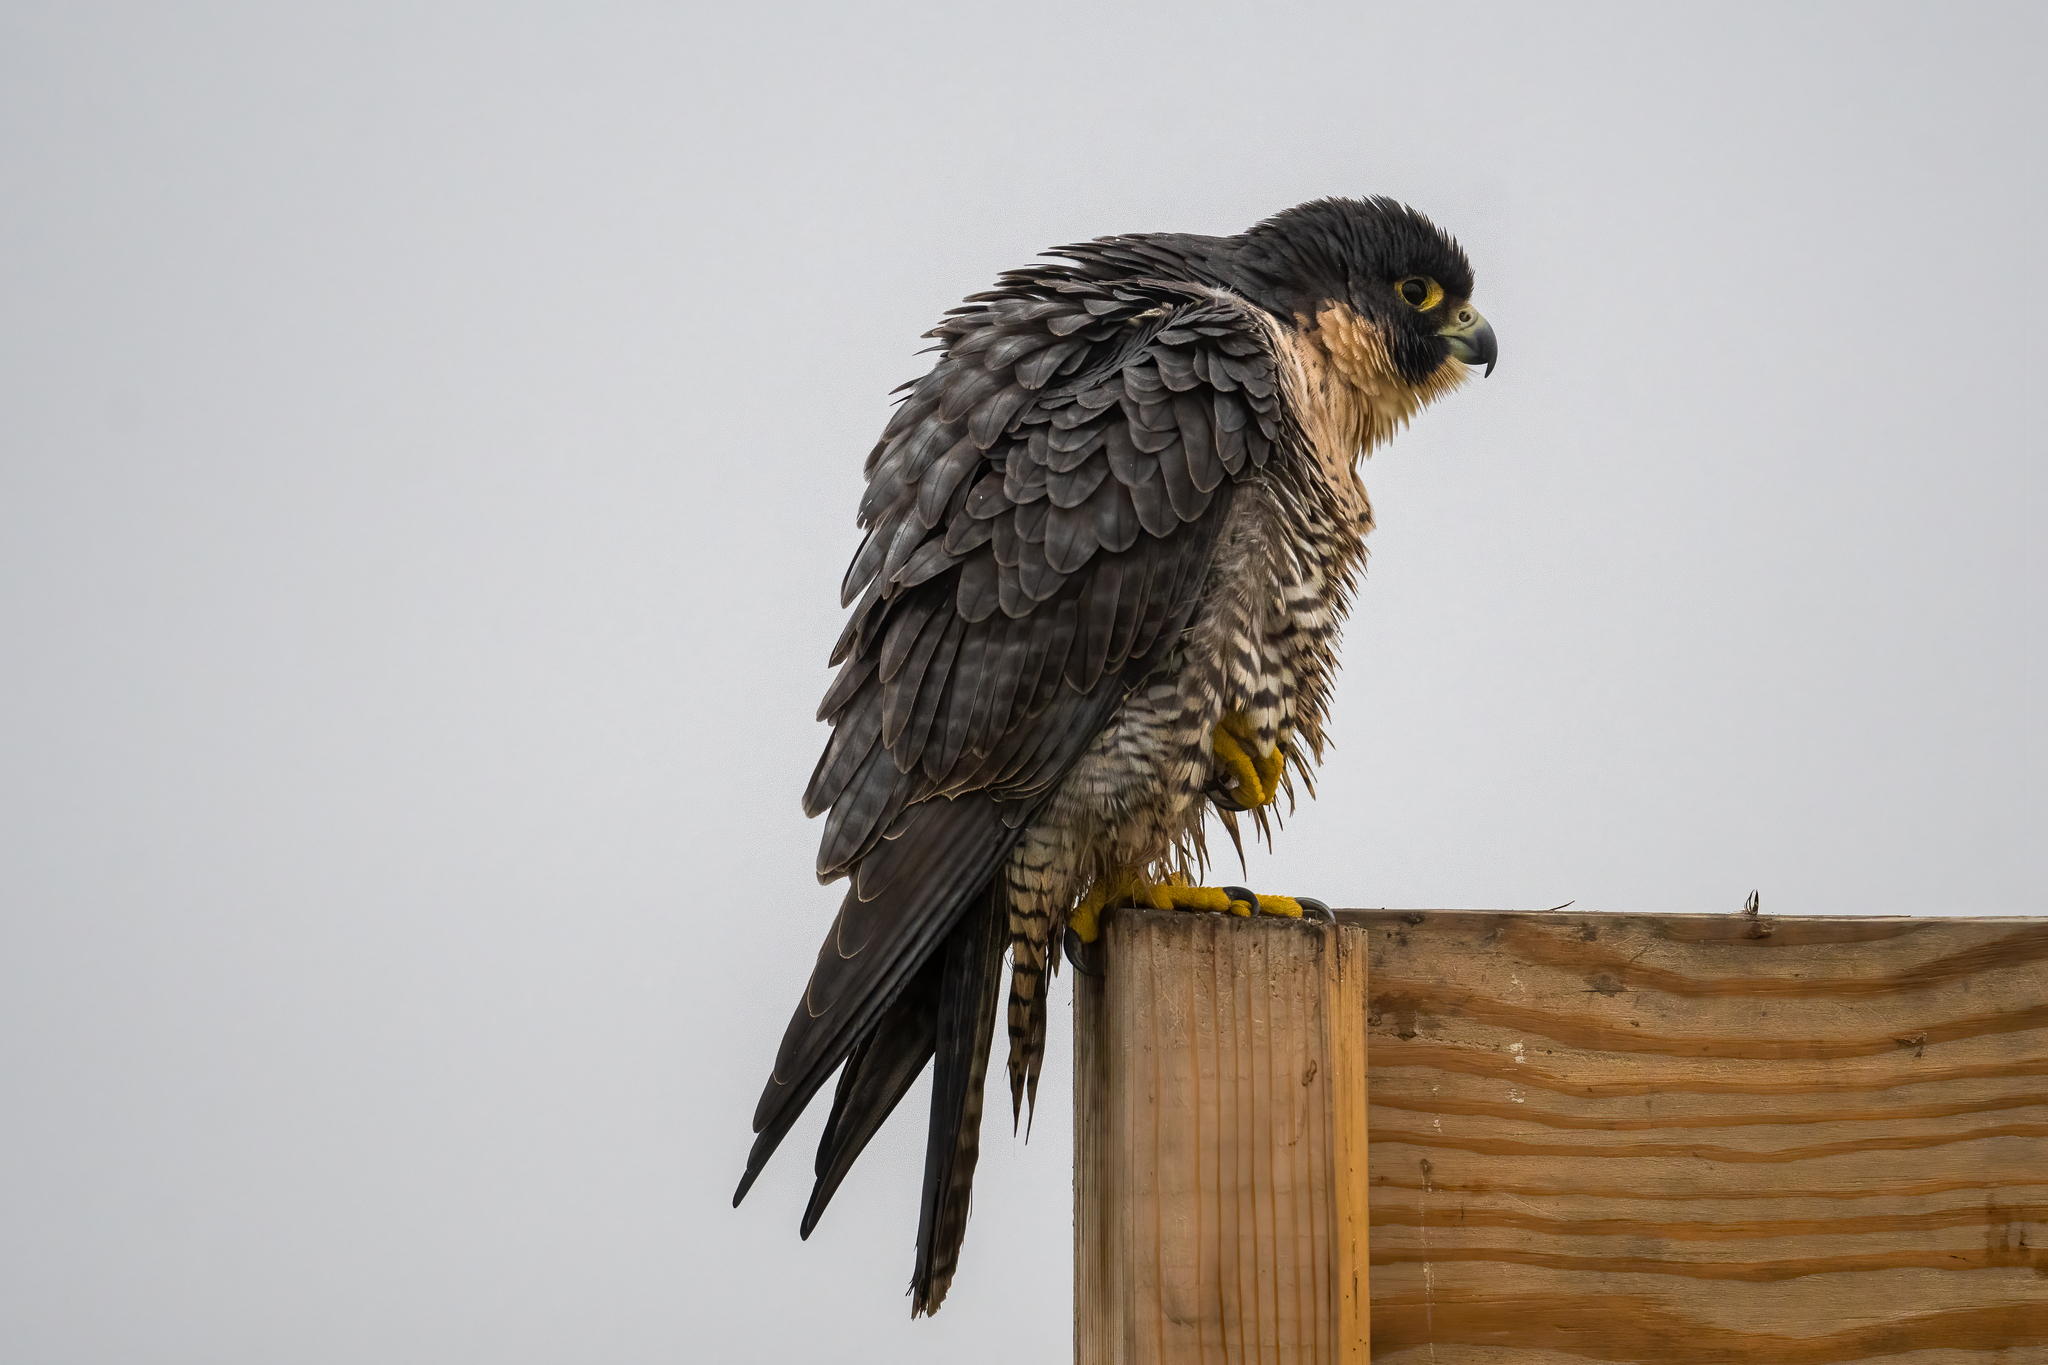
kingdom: Animalia
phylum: Chordata
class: Aves
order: Falconiformes
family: Falconidae
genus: Falco
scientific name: Falco peregrinus
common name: Peregrine falcon
